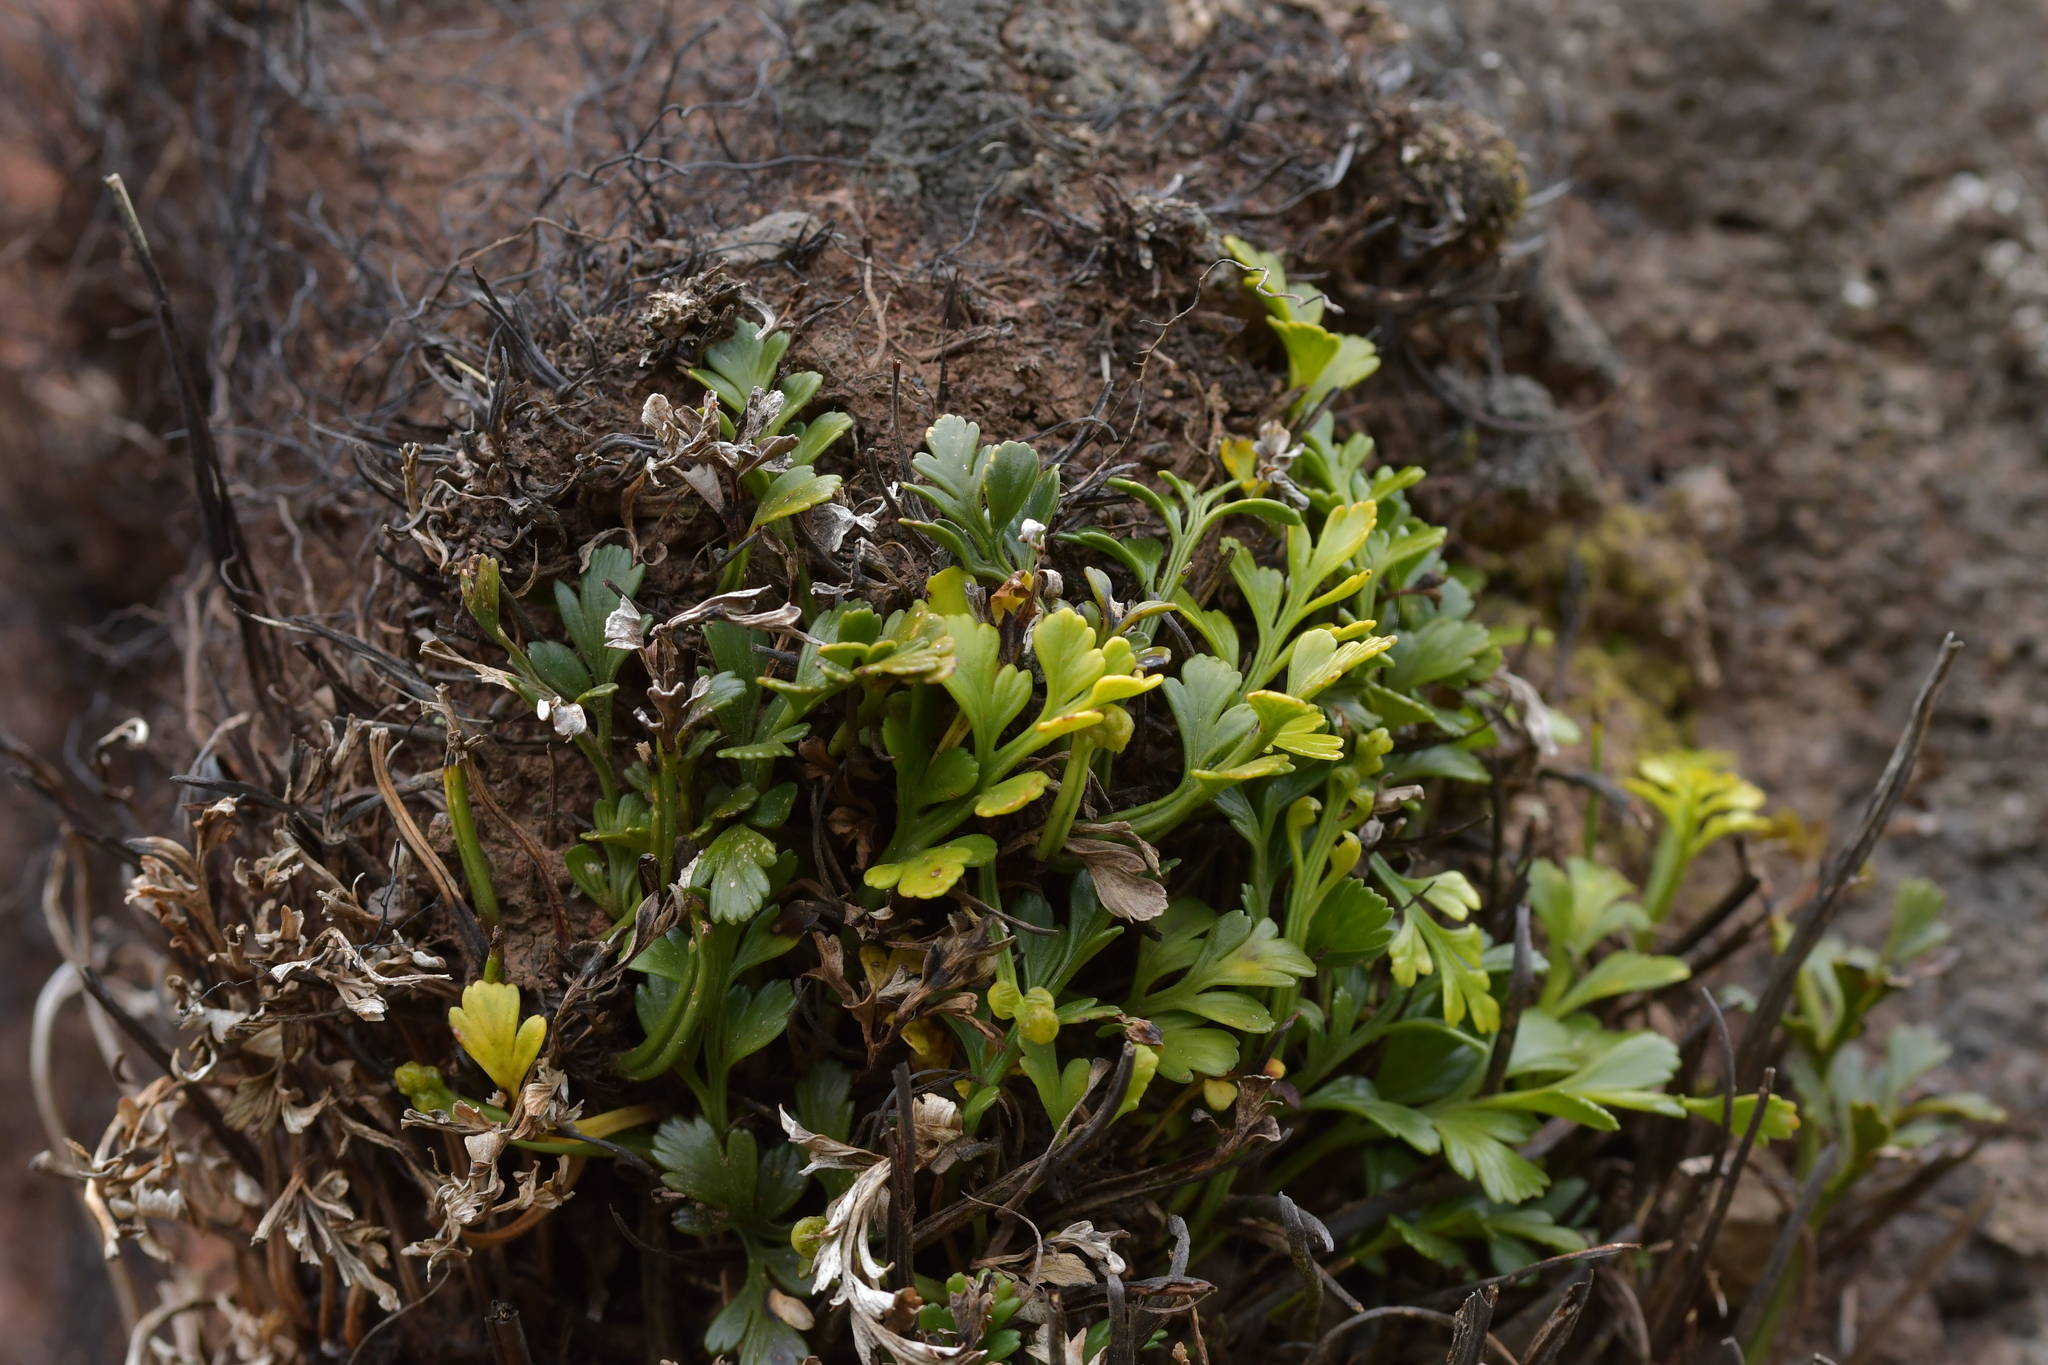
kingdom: Plantae
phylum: Tracheophyta
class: Polypodiopsida
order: Polypodiales
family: Aspleniaceae
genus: Asplenium
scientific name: Asplenium chathamense
